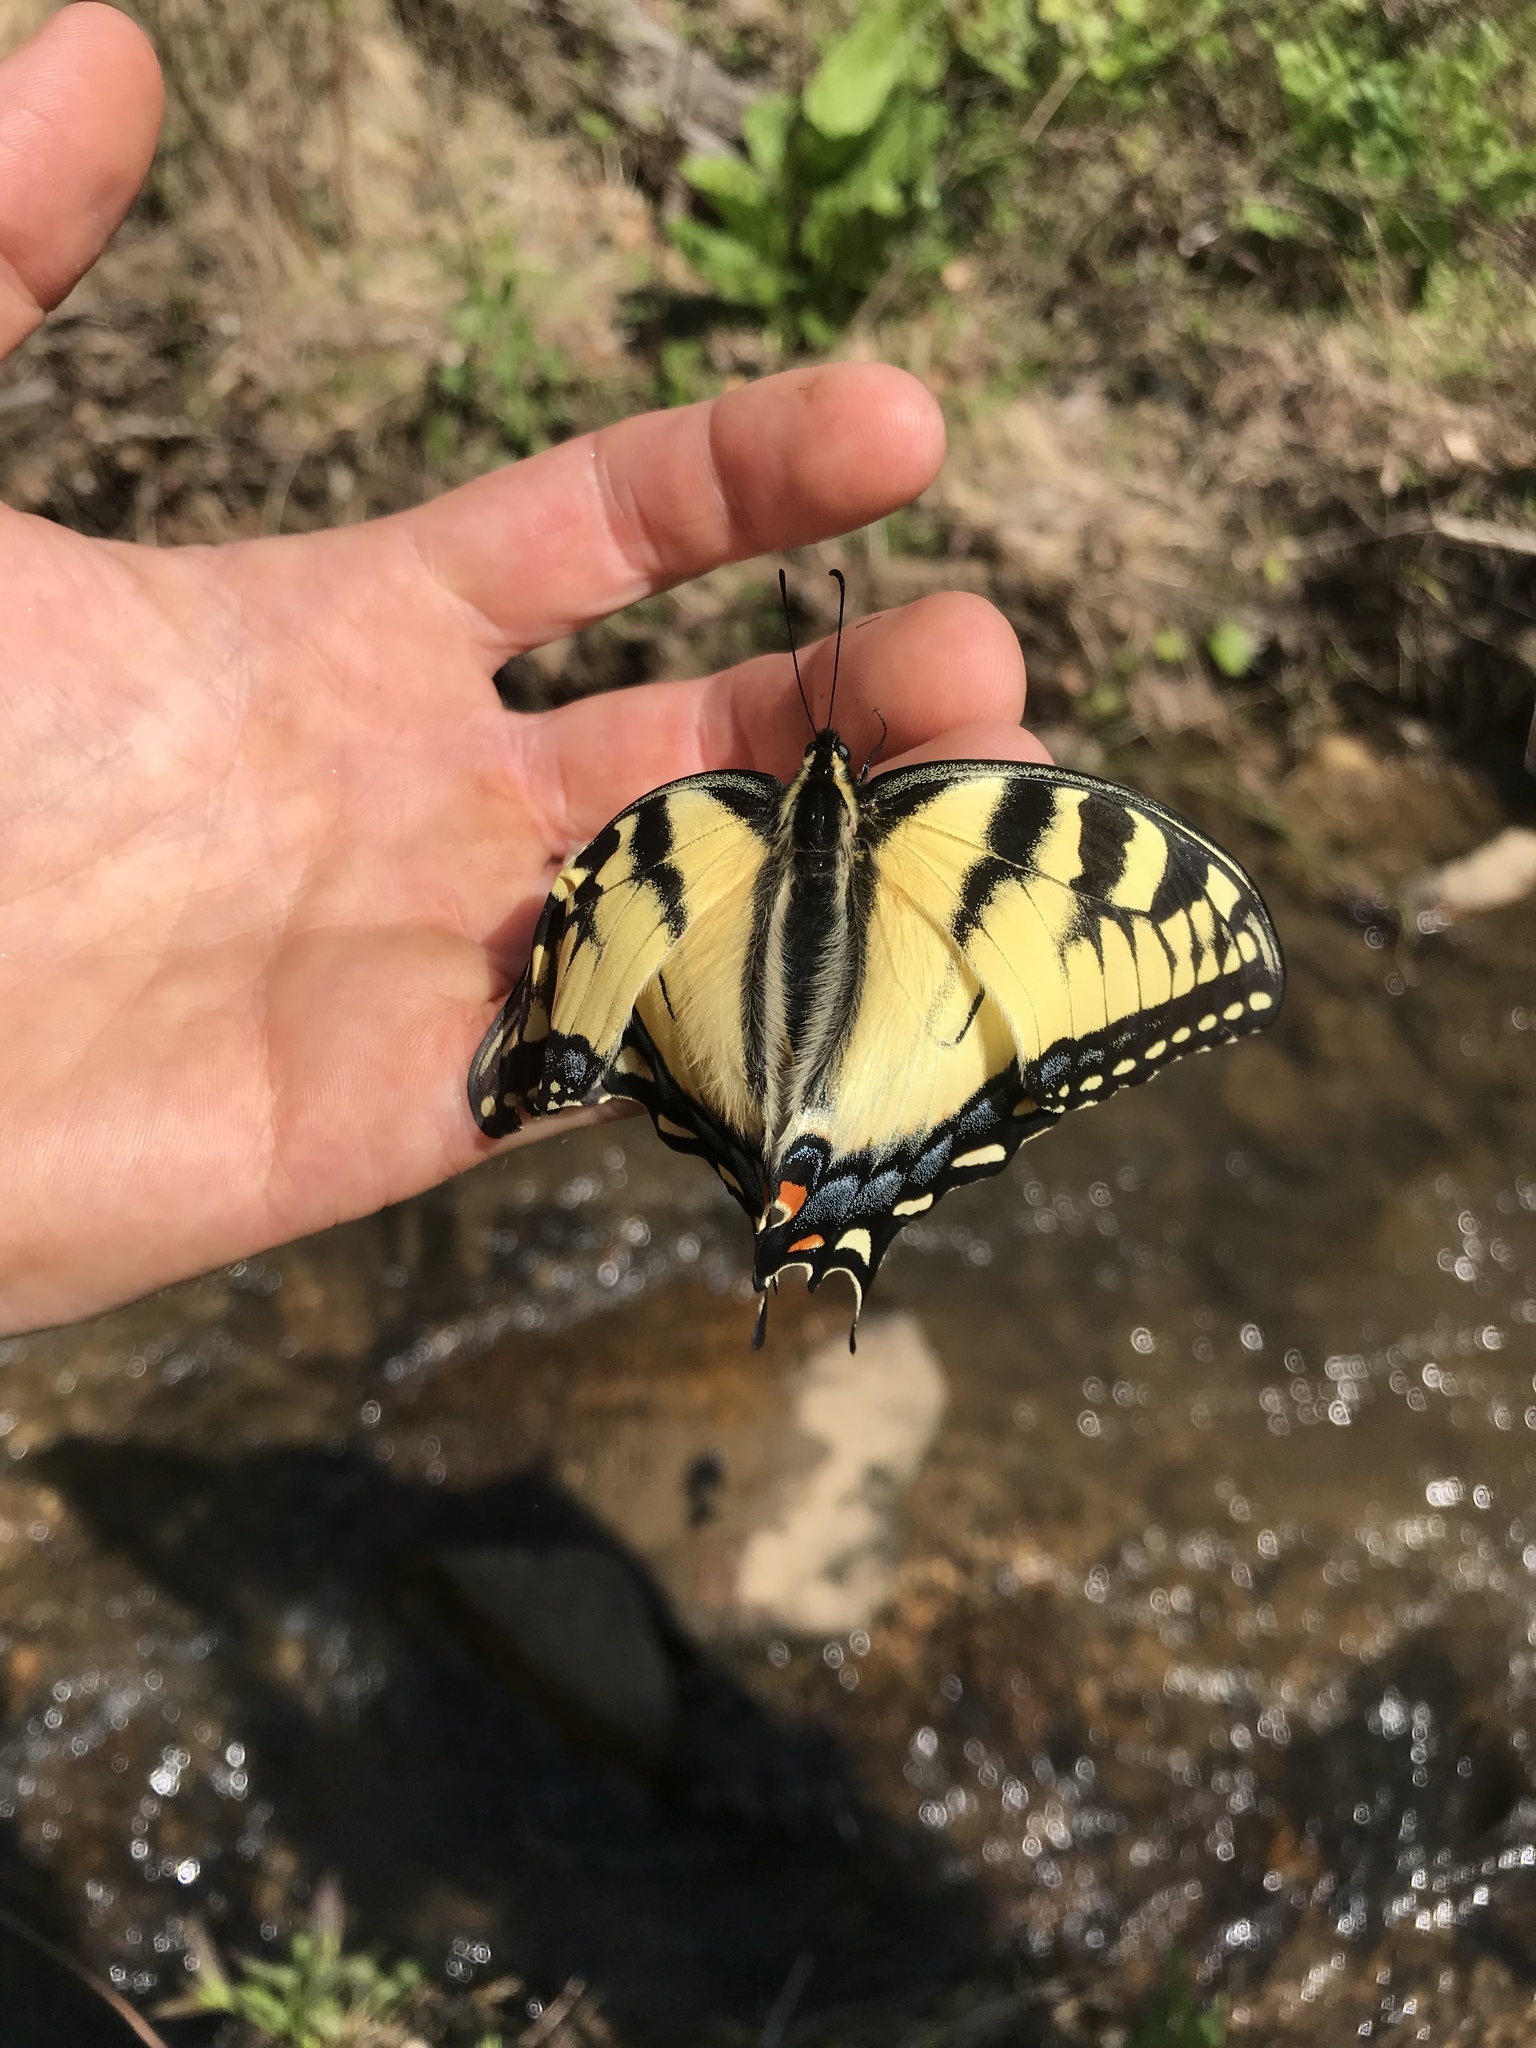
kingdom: Animalia
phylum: Arthropoda
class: Insecta
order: Lepidoptera
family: Papilionidae
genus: Papilio
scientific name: Papilio glaucus
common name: Tiger swallowtail
